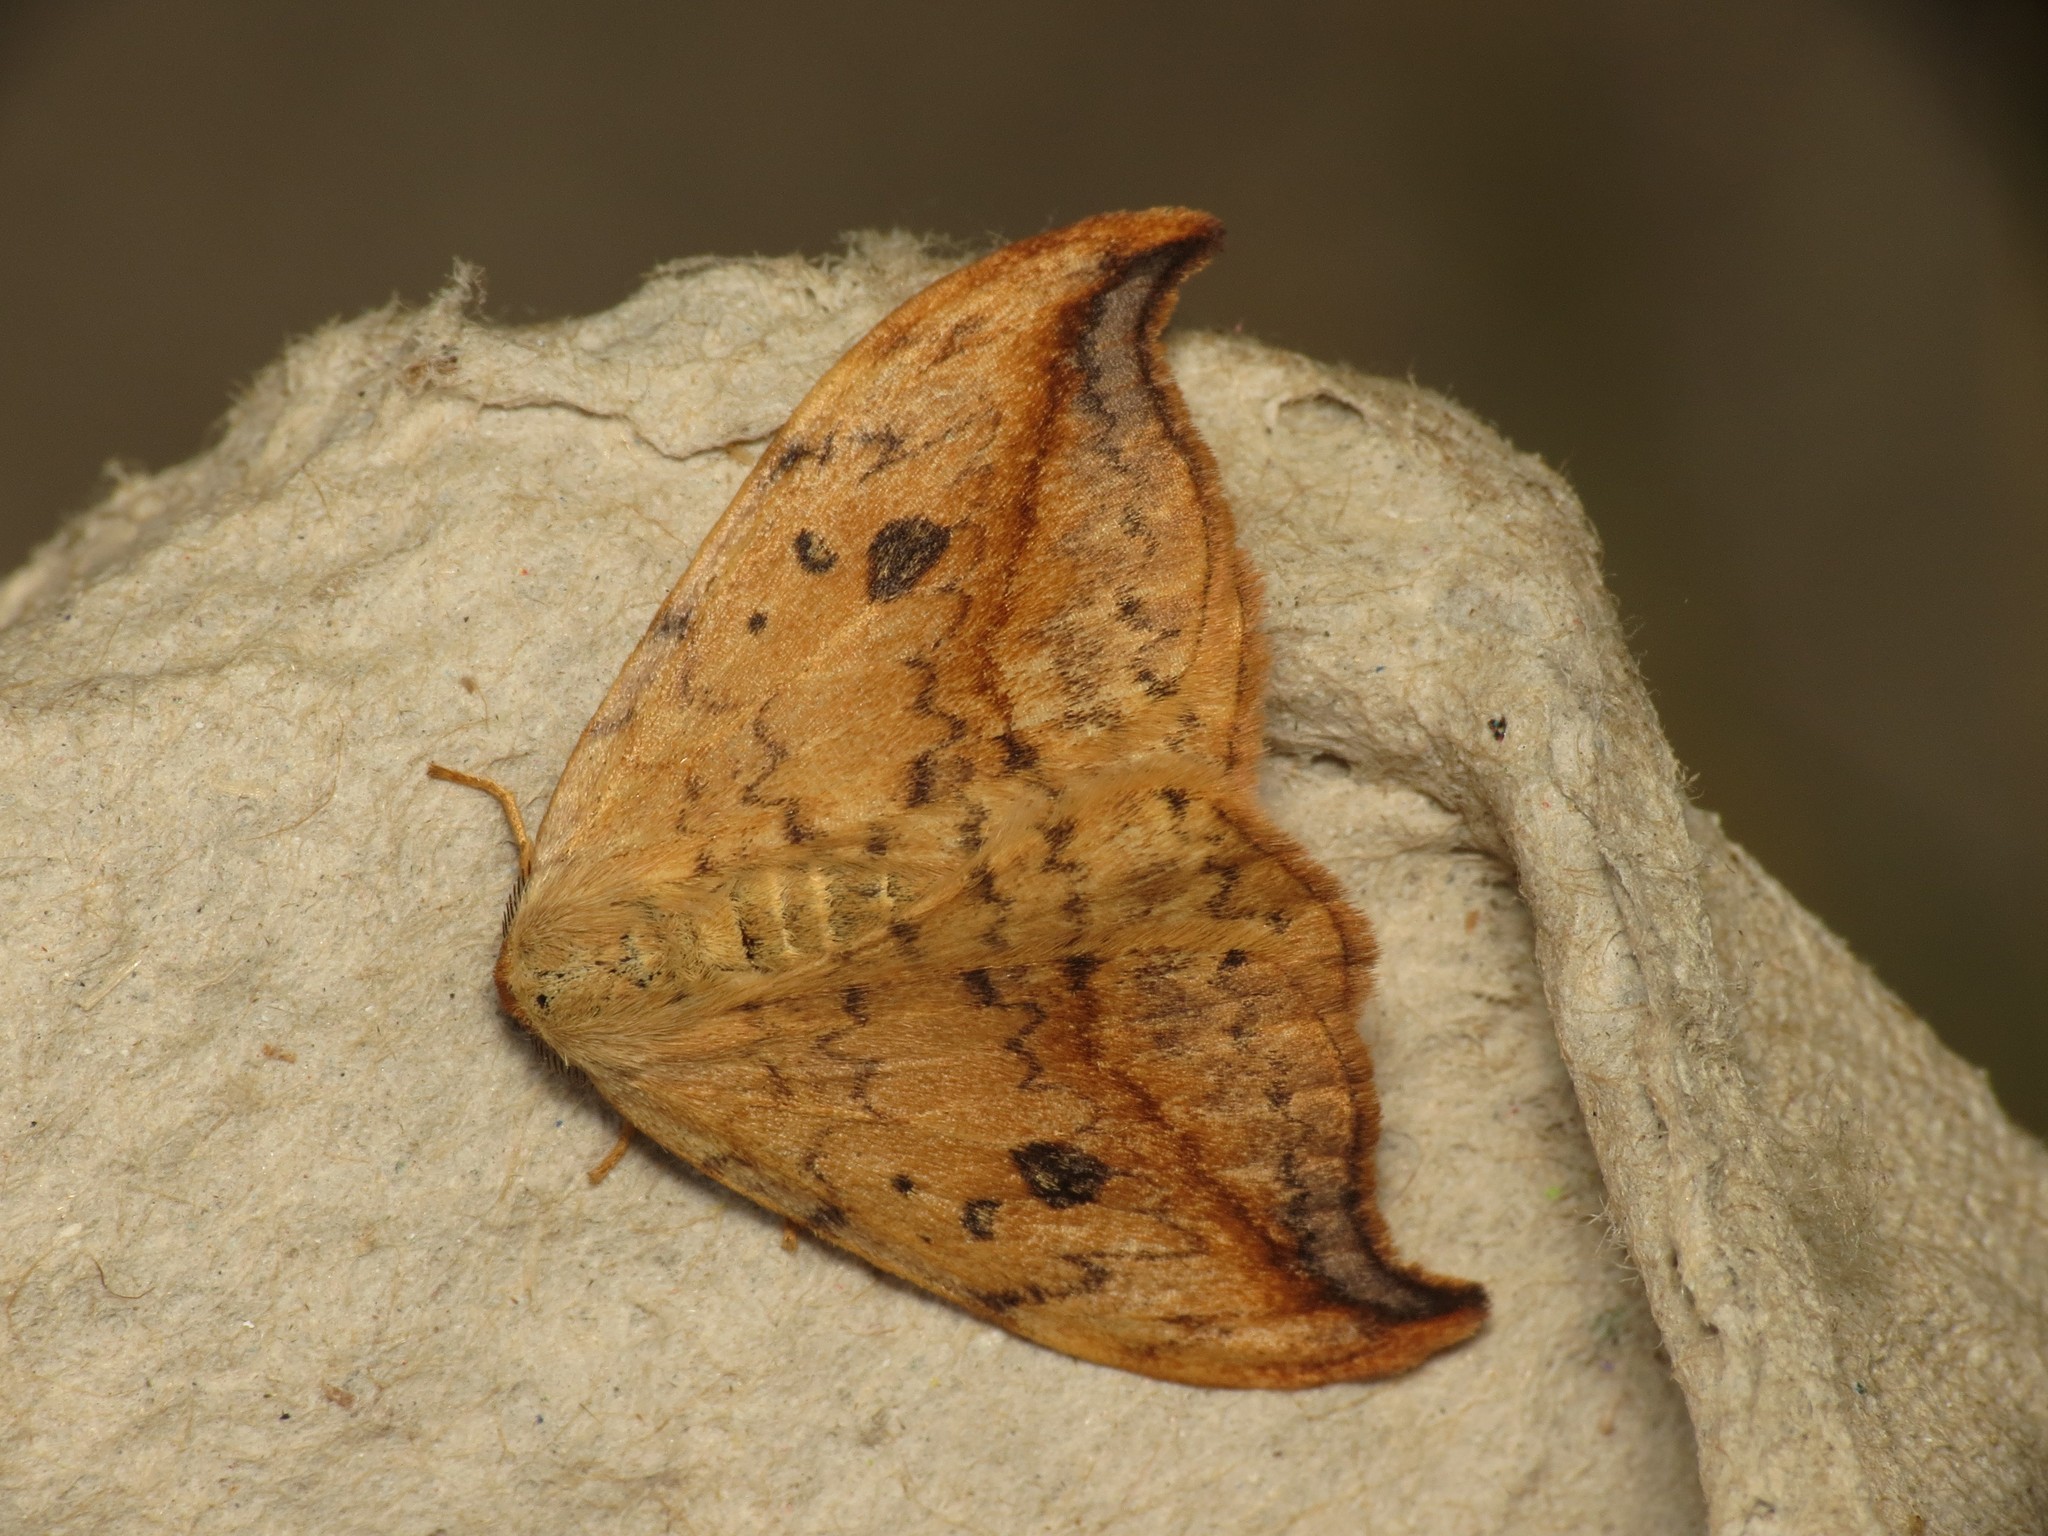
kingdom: Animalia
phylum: Arthropoda
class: Insecta
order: Lepidoptera
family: Drepanidae
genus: Drepana
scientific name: Drepana falcataria
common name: Pebble hook-tip
